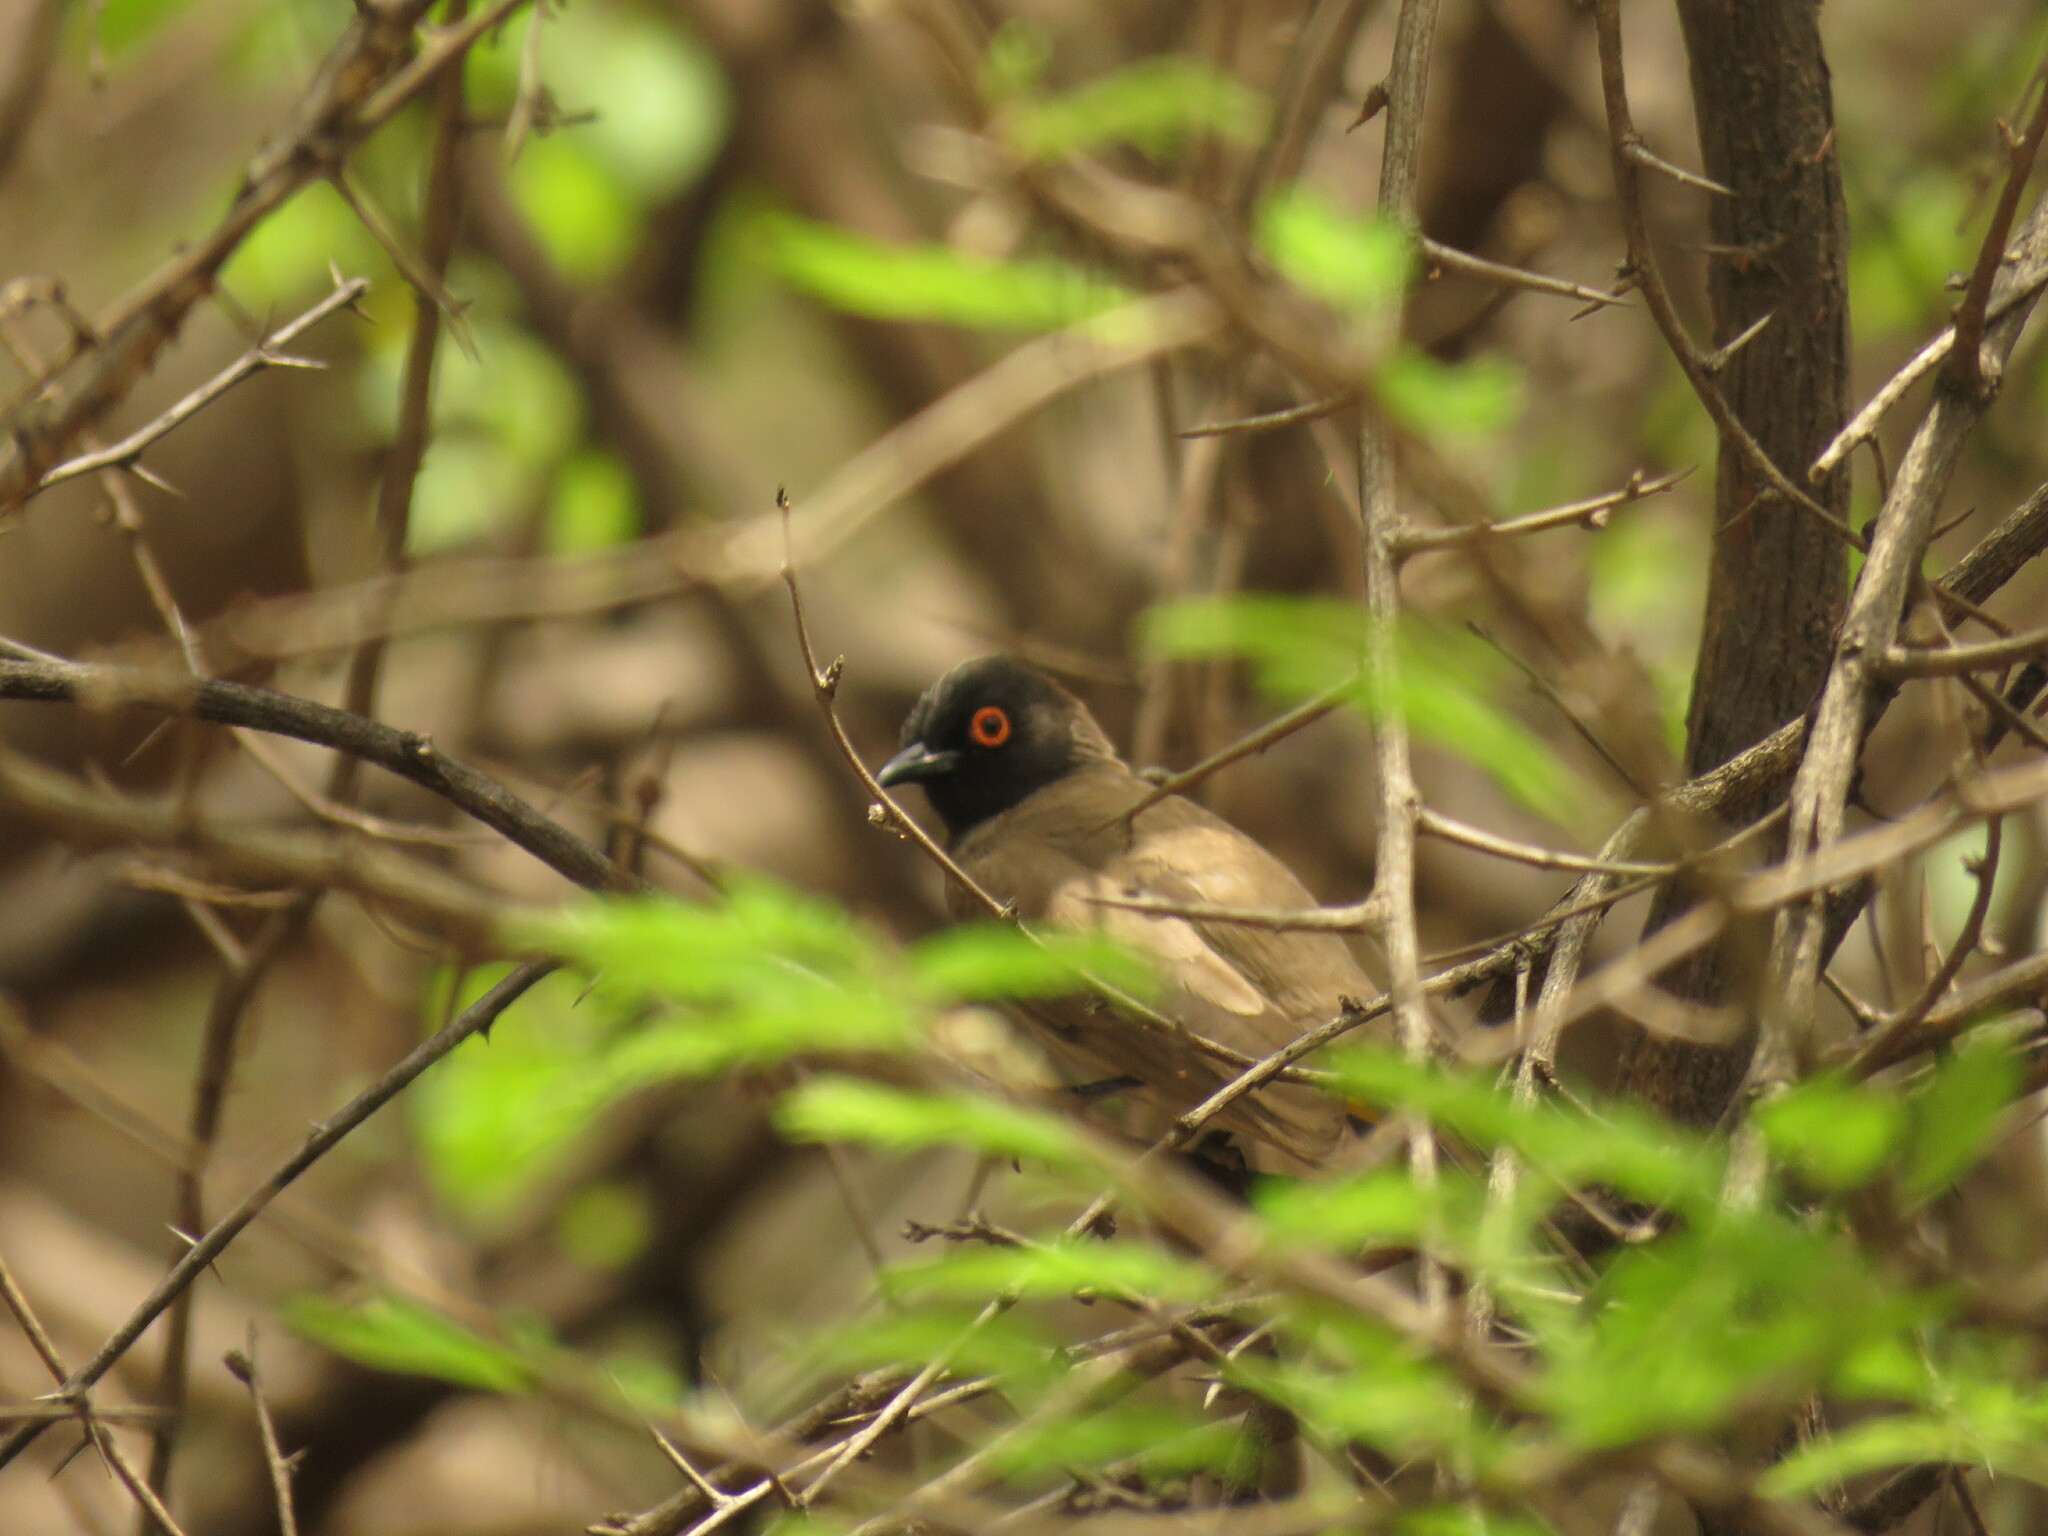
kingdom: Animalia
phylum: Chordata
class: Aves
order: Passeriformes
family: Pycnonotidae
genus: Pycnonotus
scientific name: Pycnonotus nigricans
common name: African red-eyed bulbul
